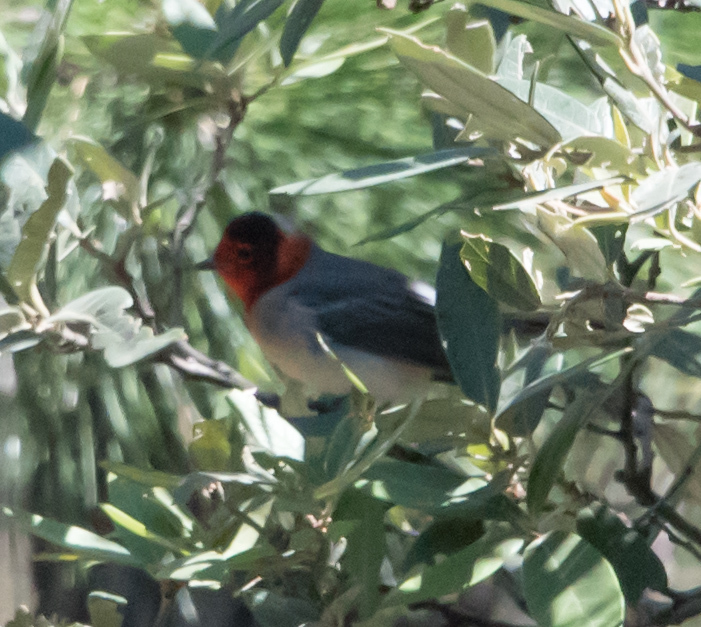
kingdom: Animalia
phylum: Chordata
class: Aves
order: Passeriformes
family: Parulidae
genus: Cardellina
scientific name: Cardellina rubrifrons
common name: Red-faced warbler
